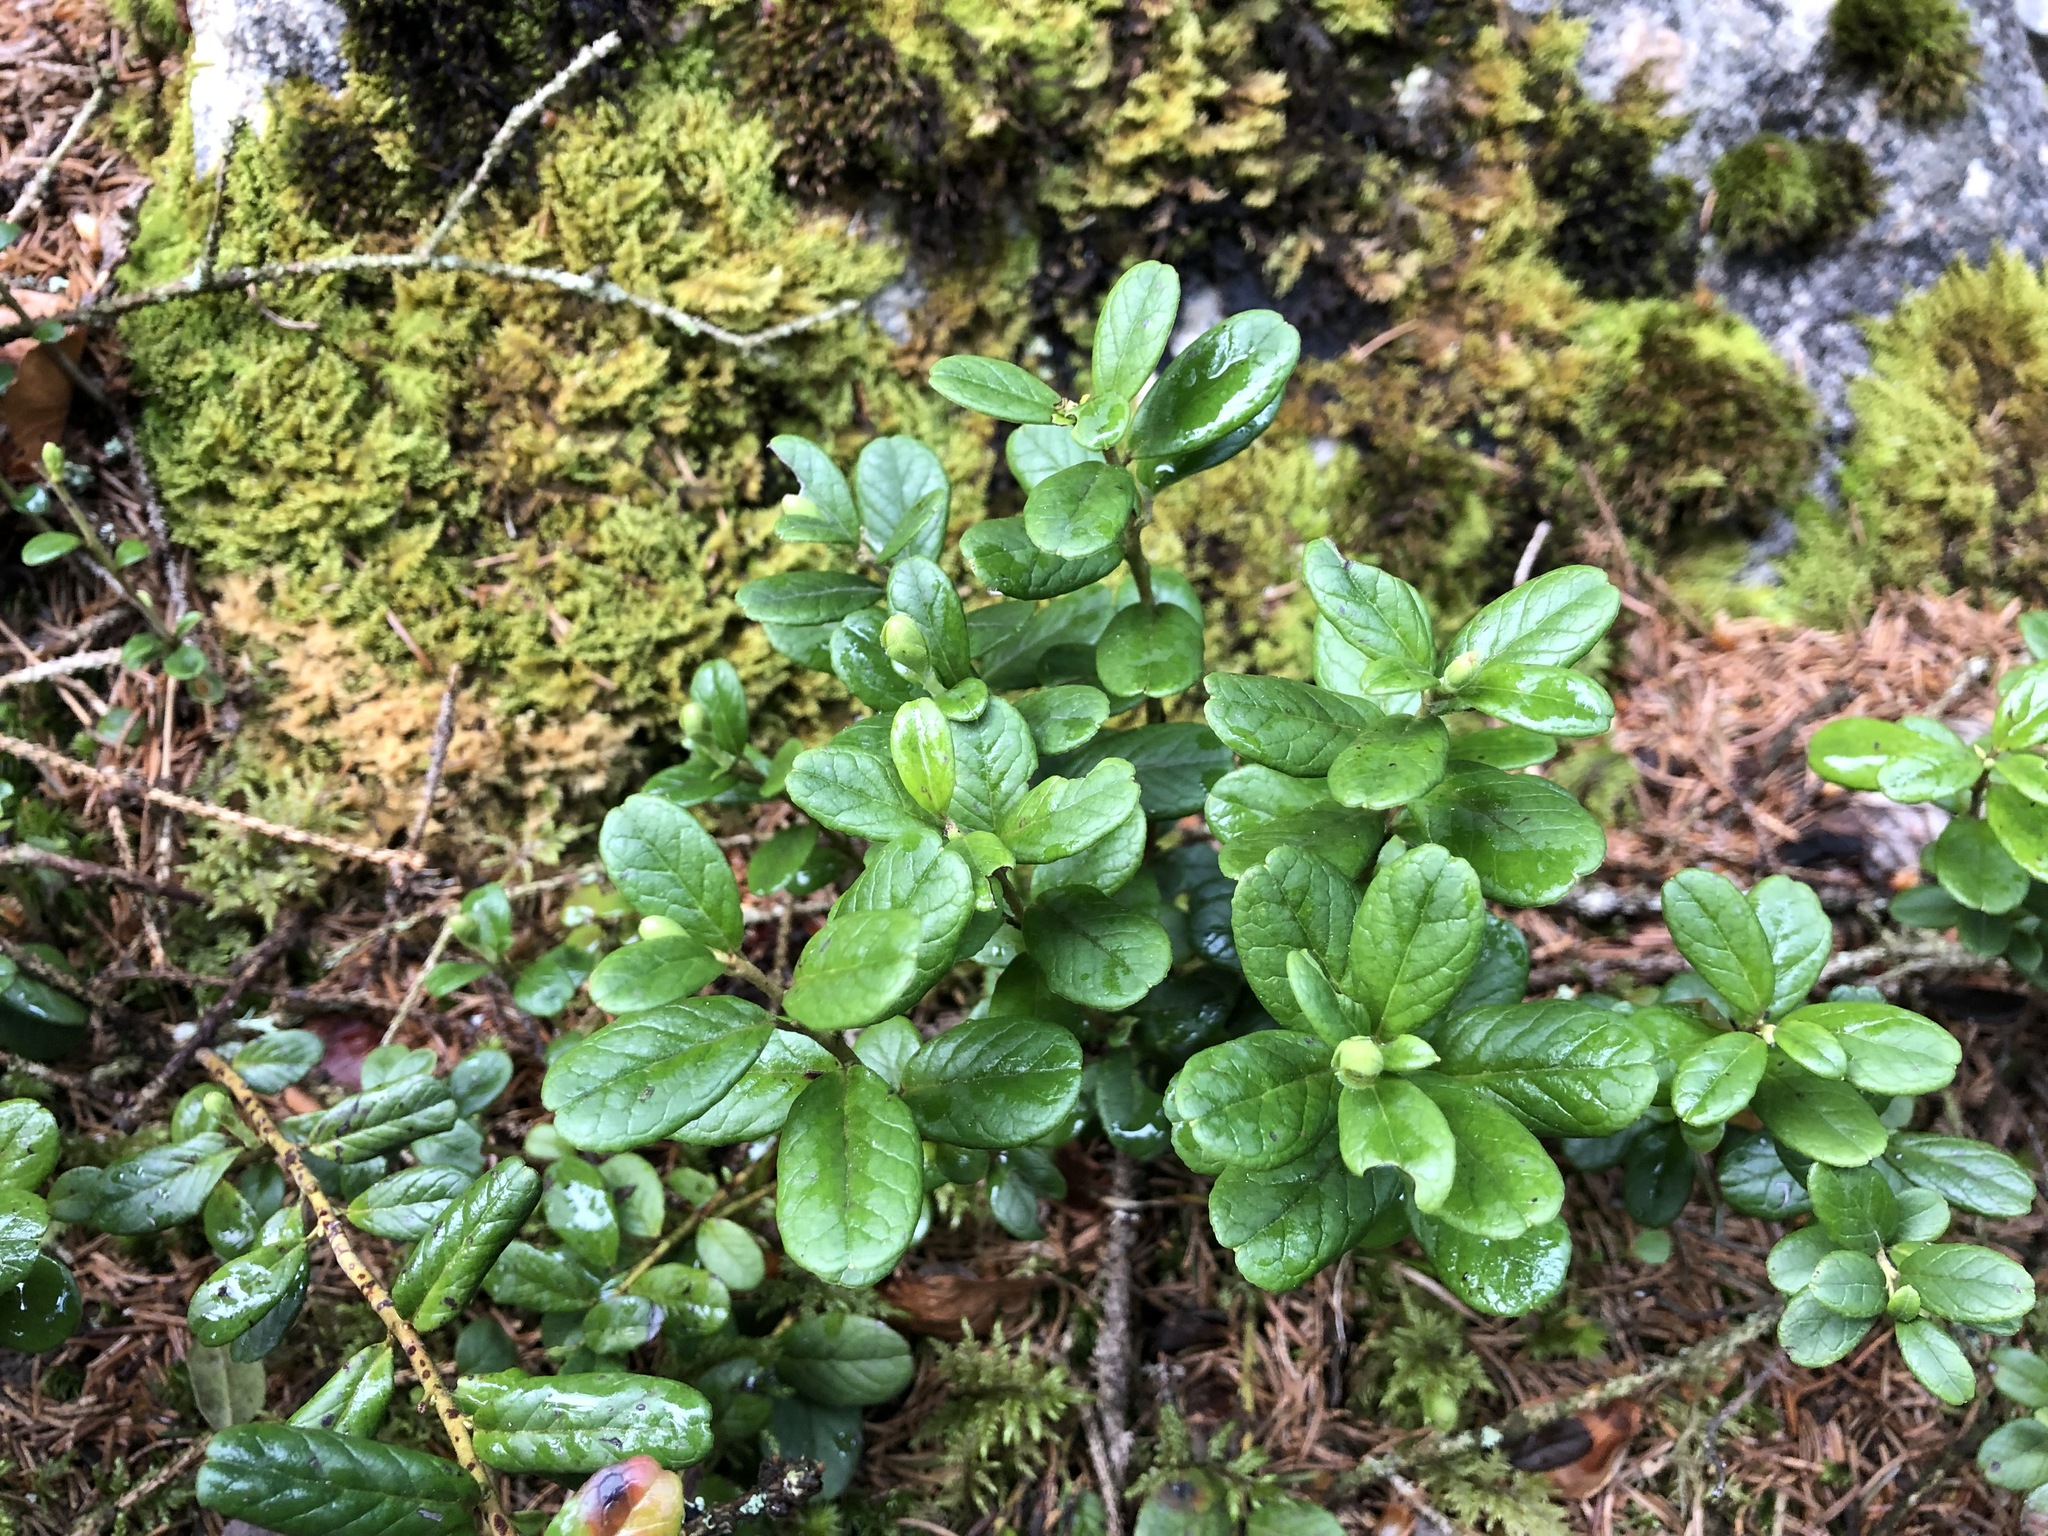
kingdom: Plantae
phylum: Tracheophyta
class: Magnoliopsida
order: Ericales
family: Ericaceae
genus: Vaccinium
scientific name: Vaccinium vitis-idaea
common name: Cowberry
